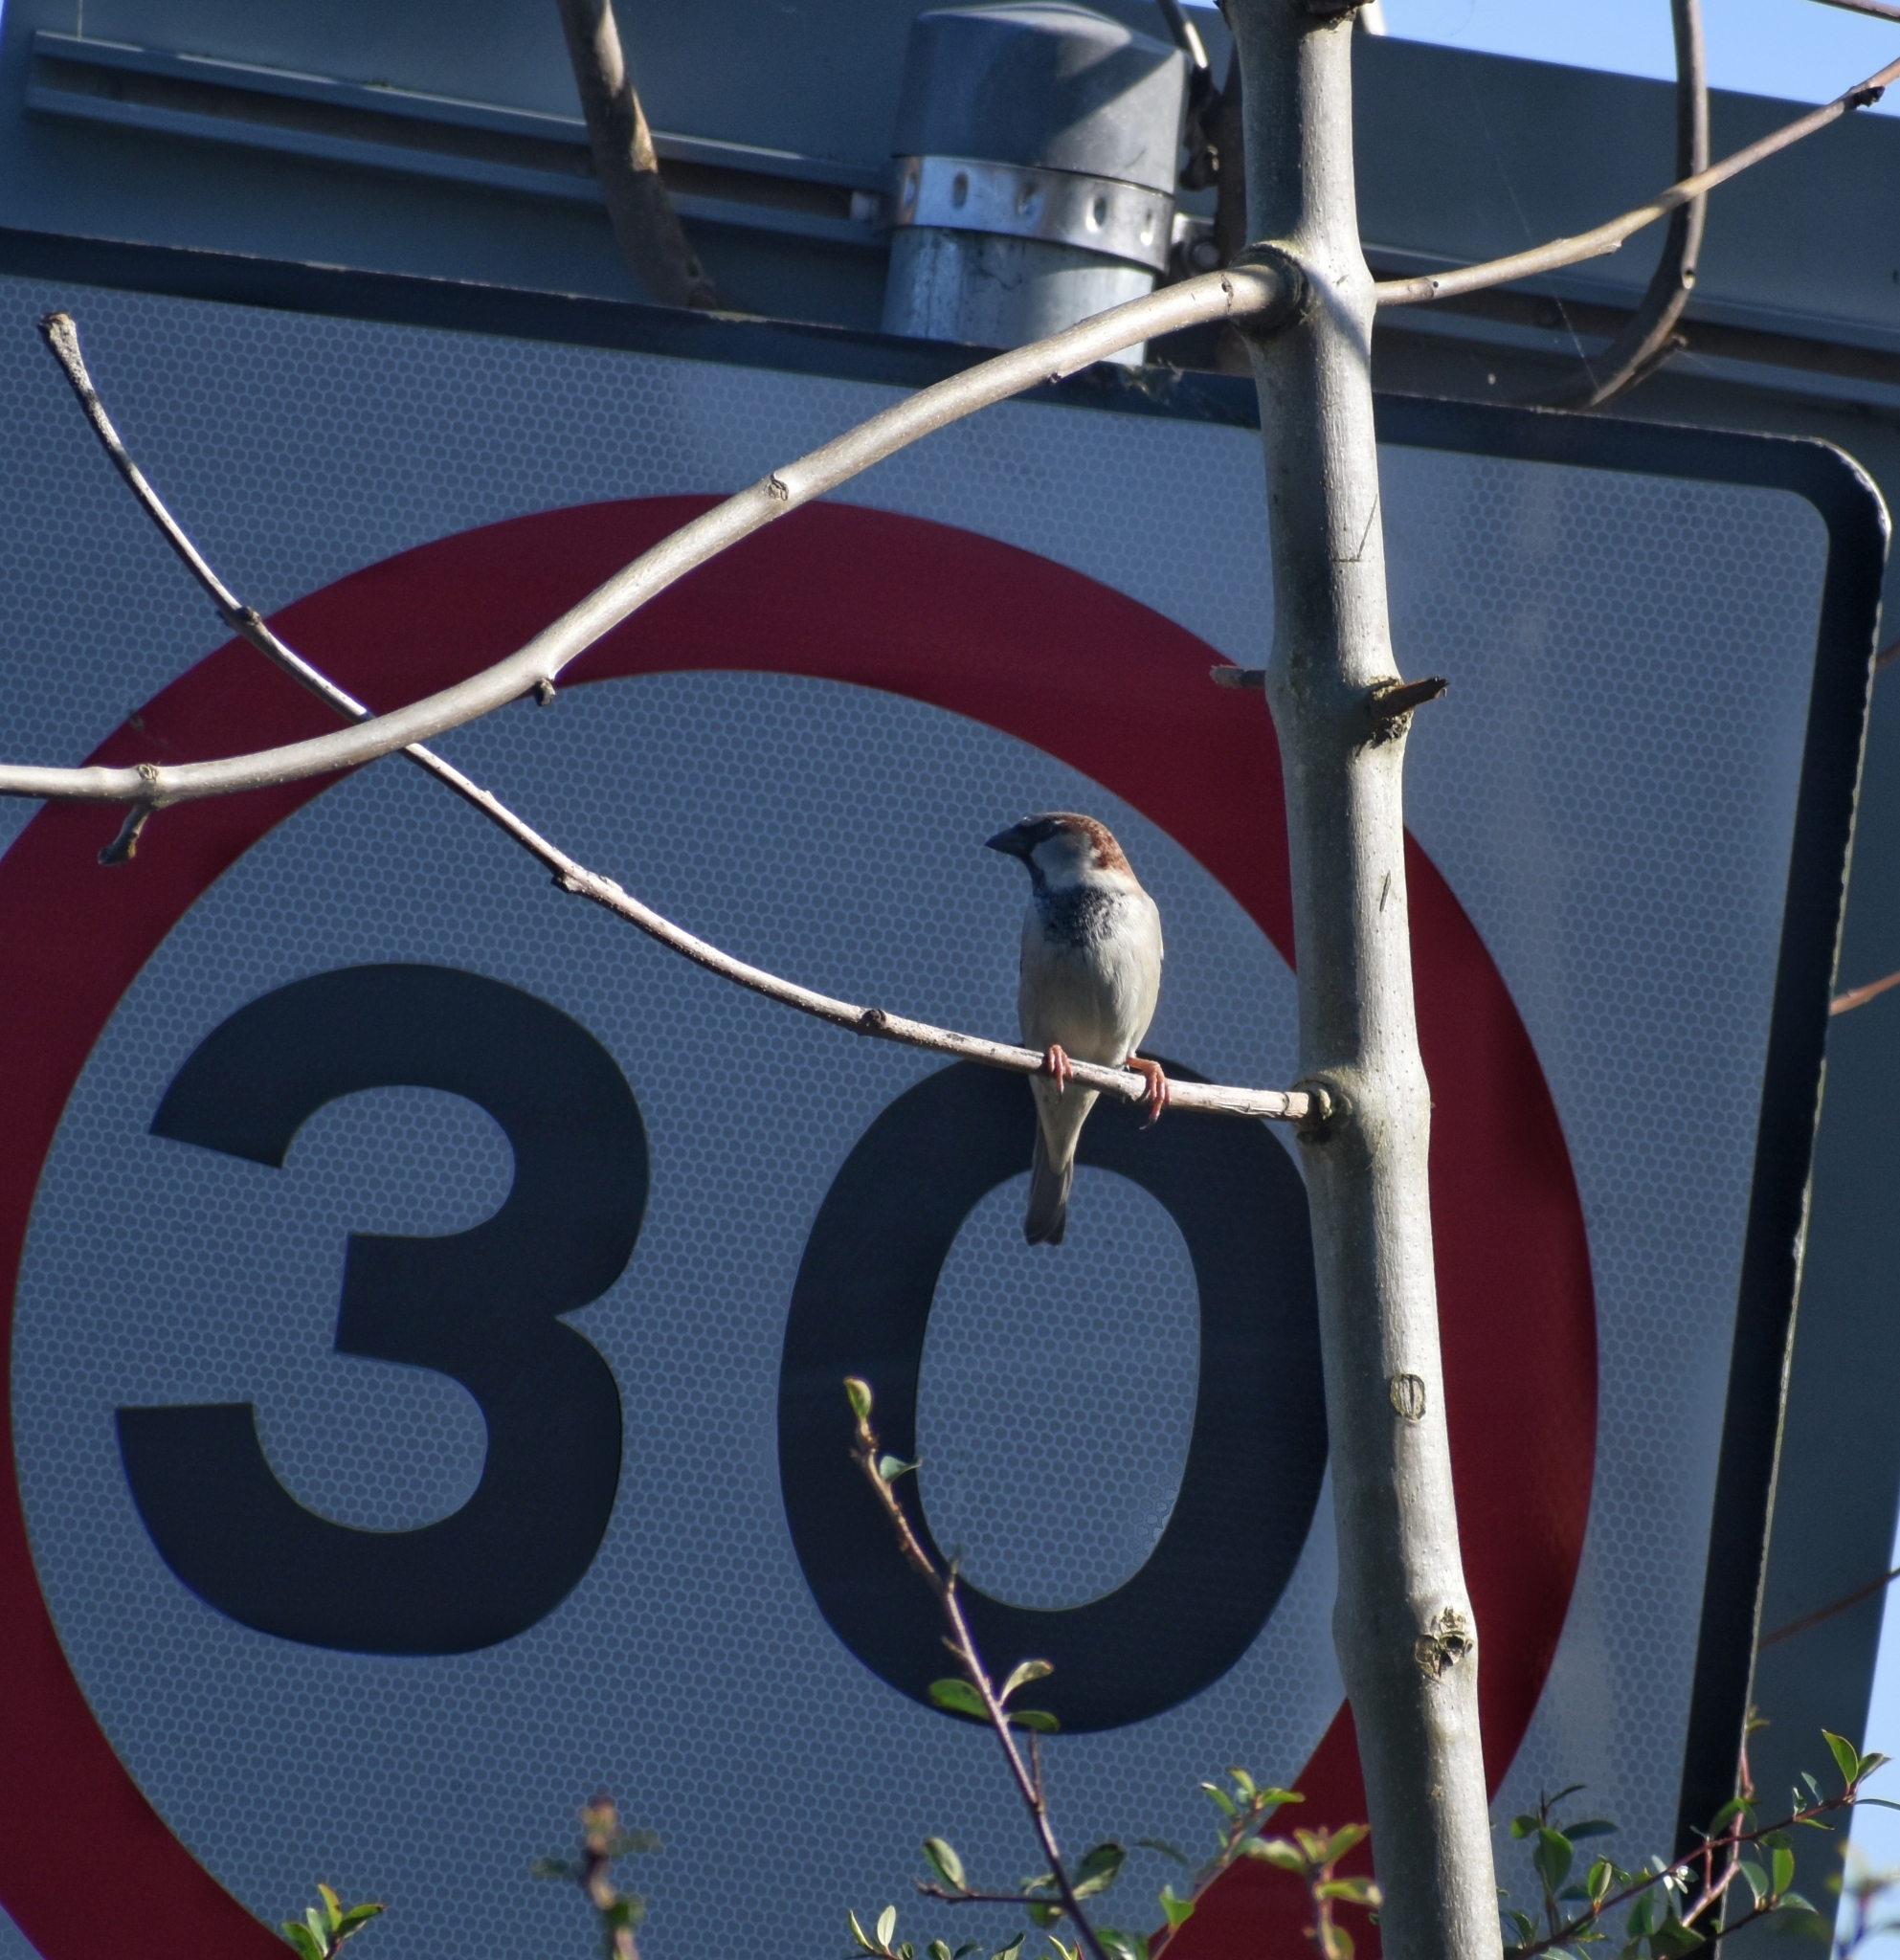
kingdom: Animalia
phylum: Chordata
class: Aves
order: Passeriformes
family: Passeridae
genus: Passer
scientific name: Passer domesticus
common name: House sparrow
